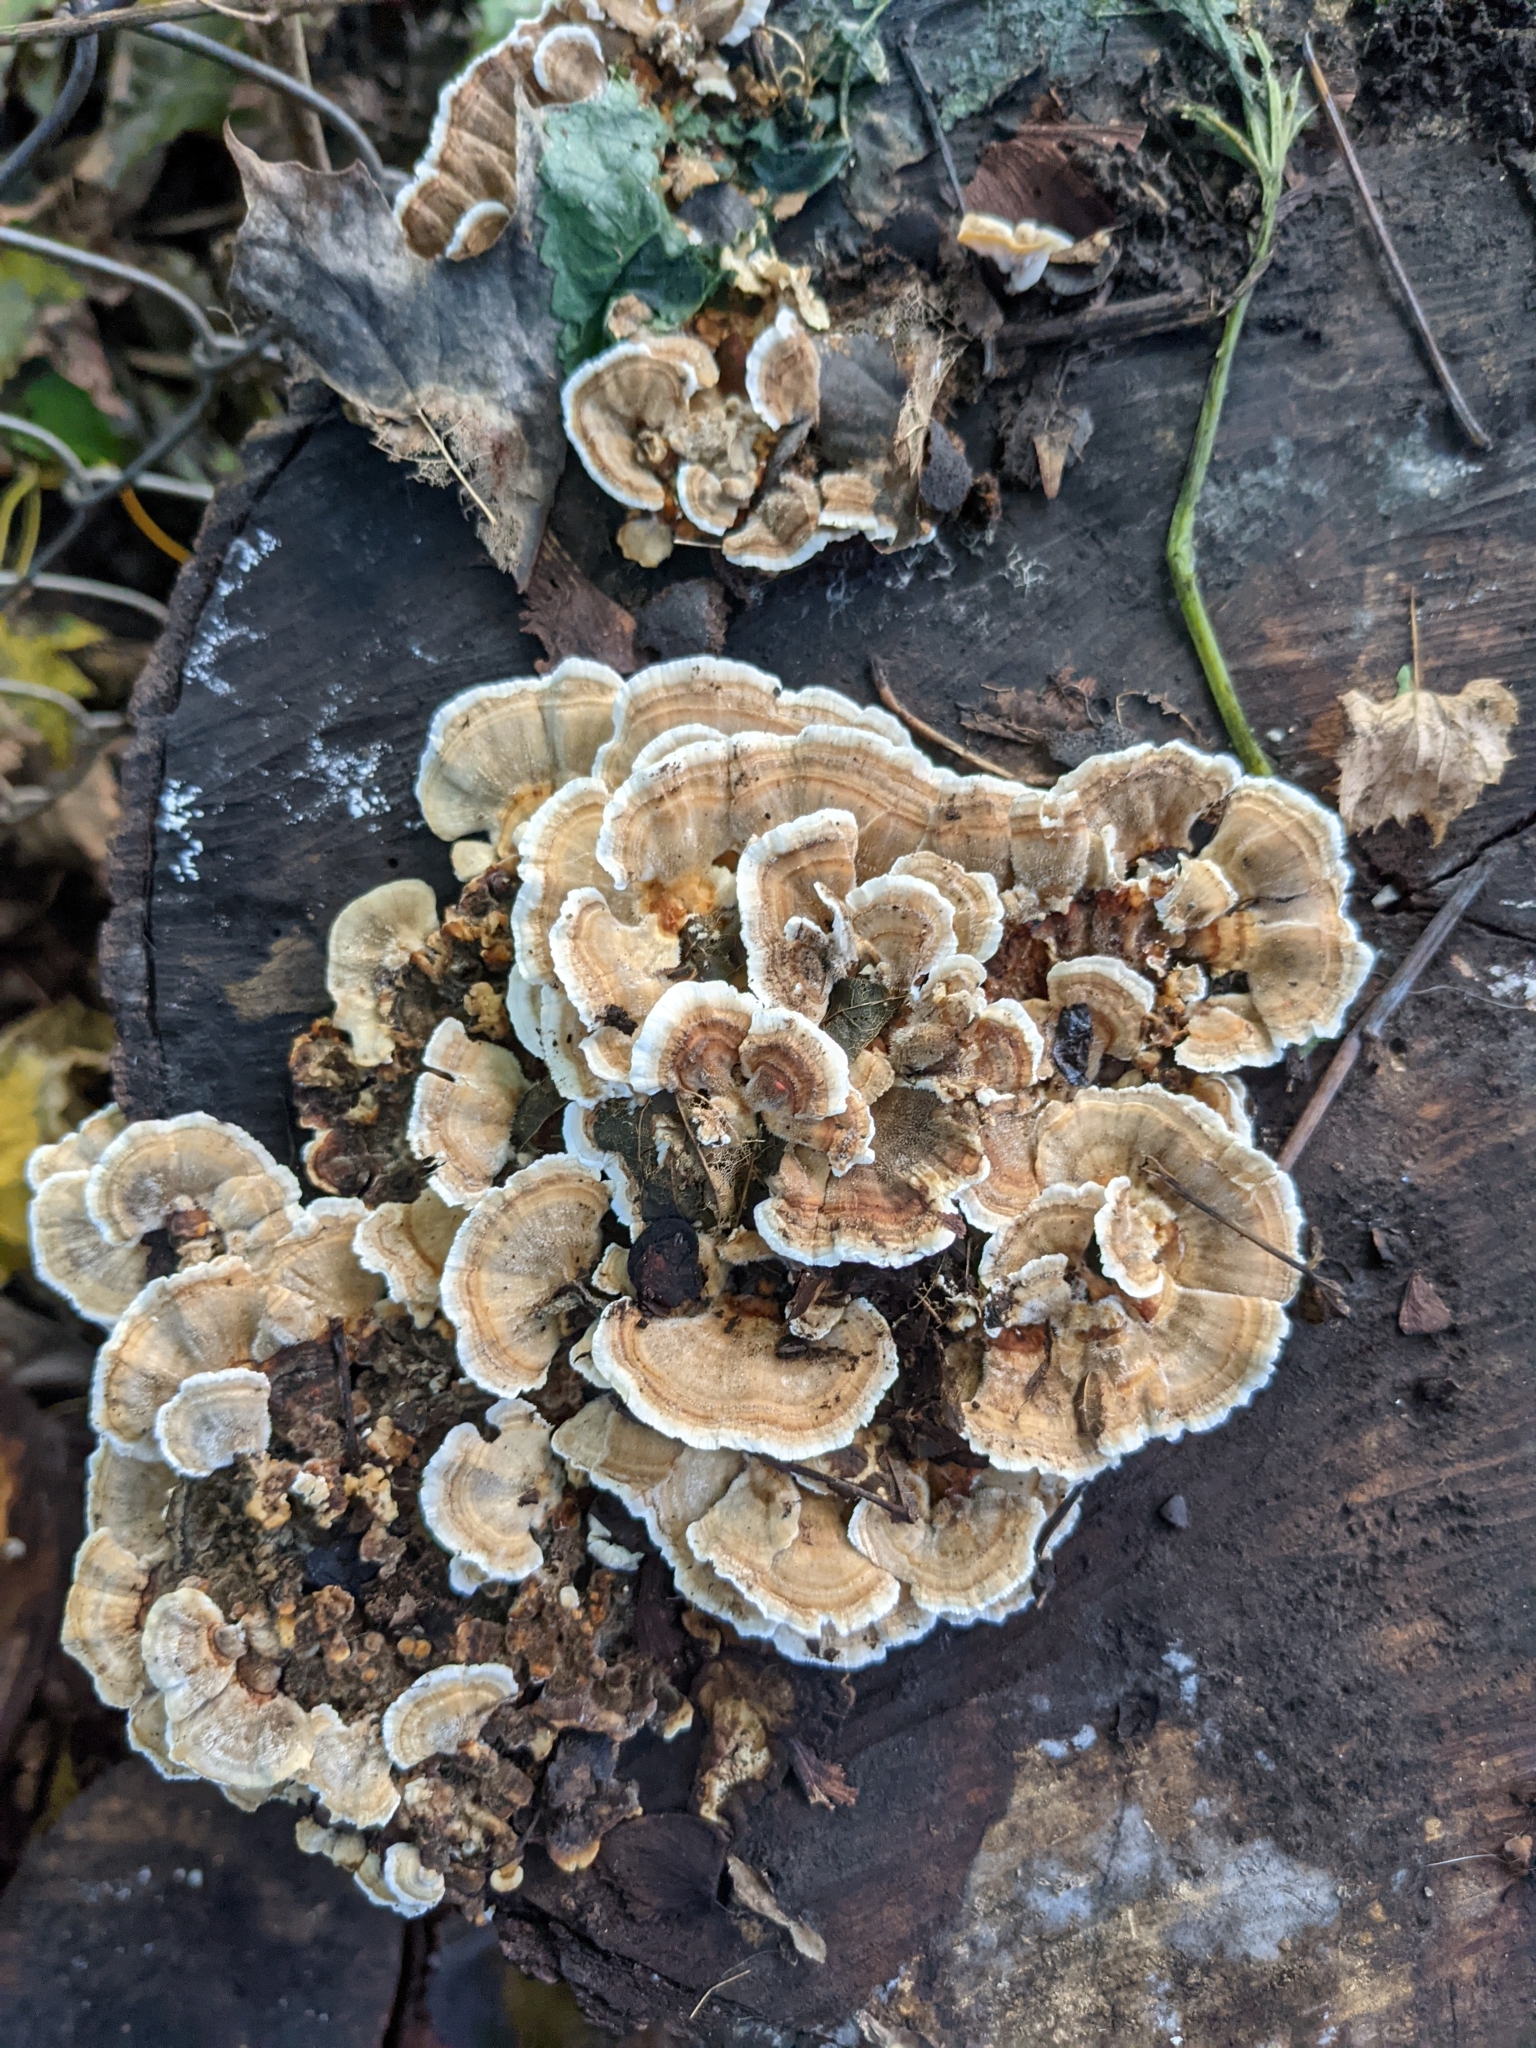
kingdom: Fungi
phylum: Basidiomycota
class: Agaricomycetes
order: Polyporales
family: Polyporaceae
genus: Trametes
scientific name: Trametes versicolor
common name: Turkeytail
